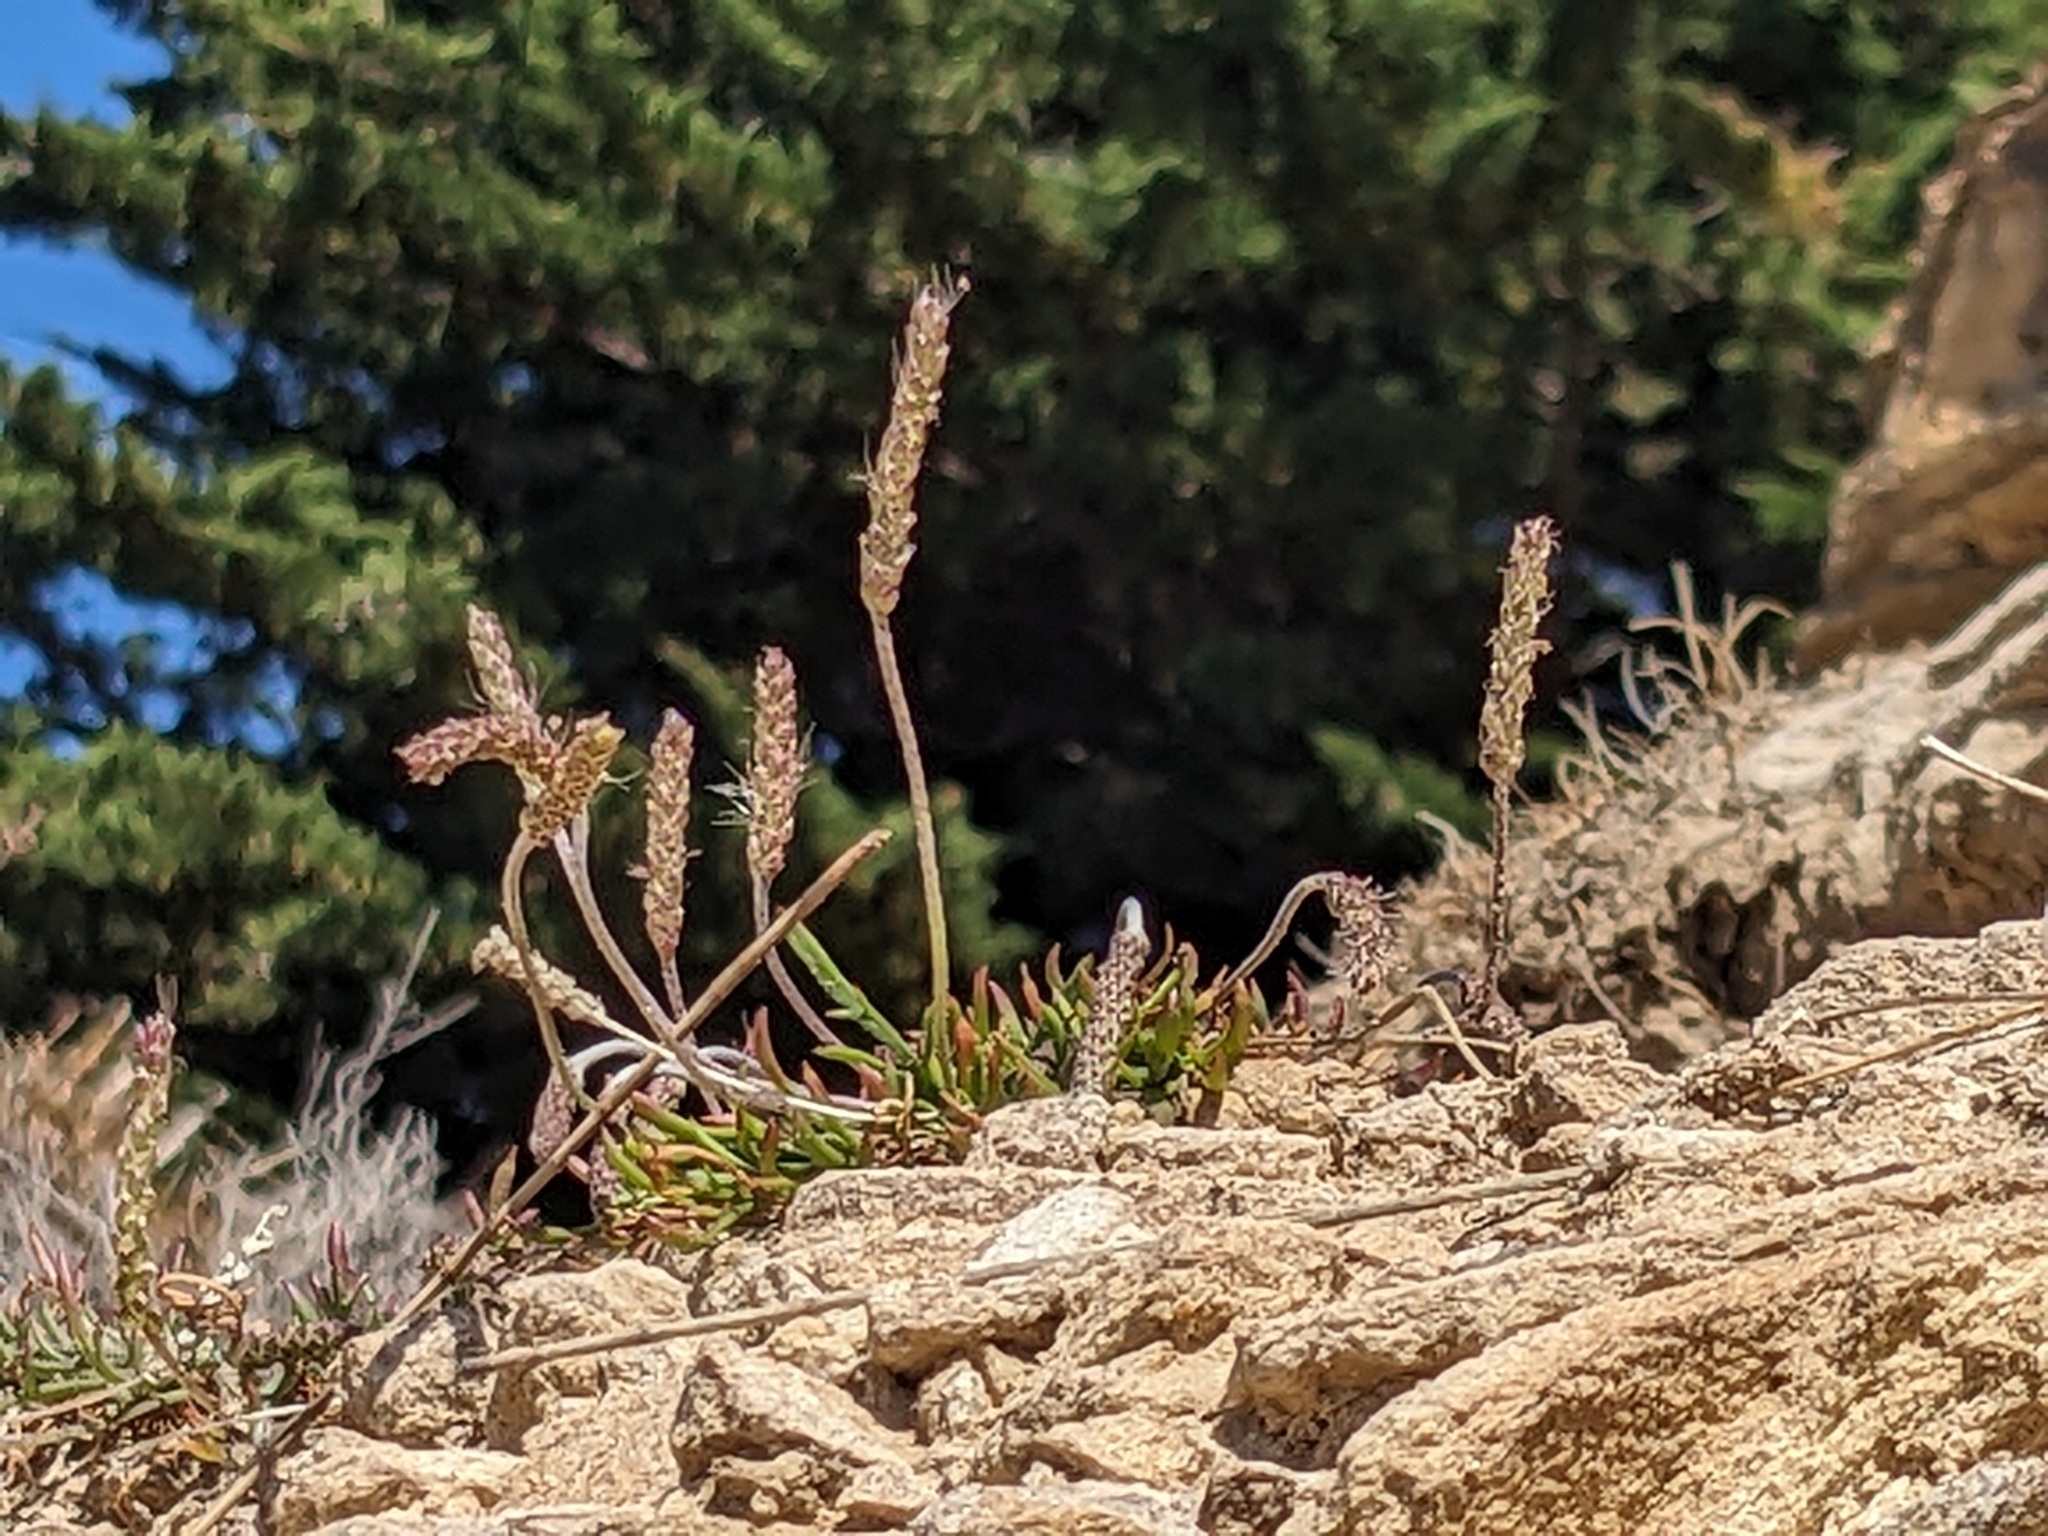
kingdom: Plantae
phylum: Tracheophyta
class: Magnoliopsida
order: Lamiales
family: Plantaginaceae
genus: Plantago
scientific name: Plantago coronopus
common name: Buck's-horn plantain
